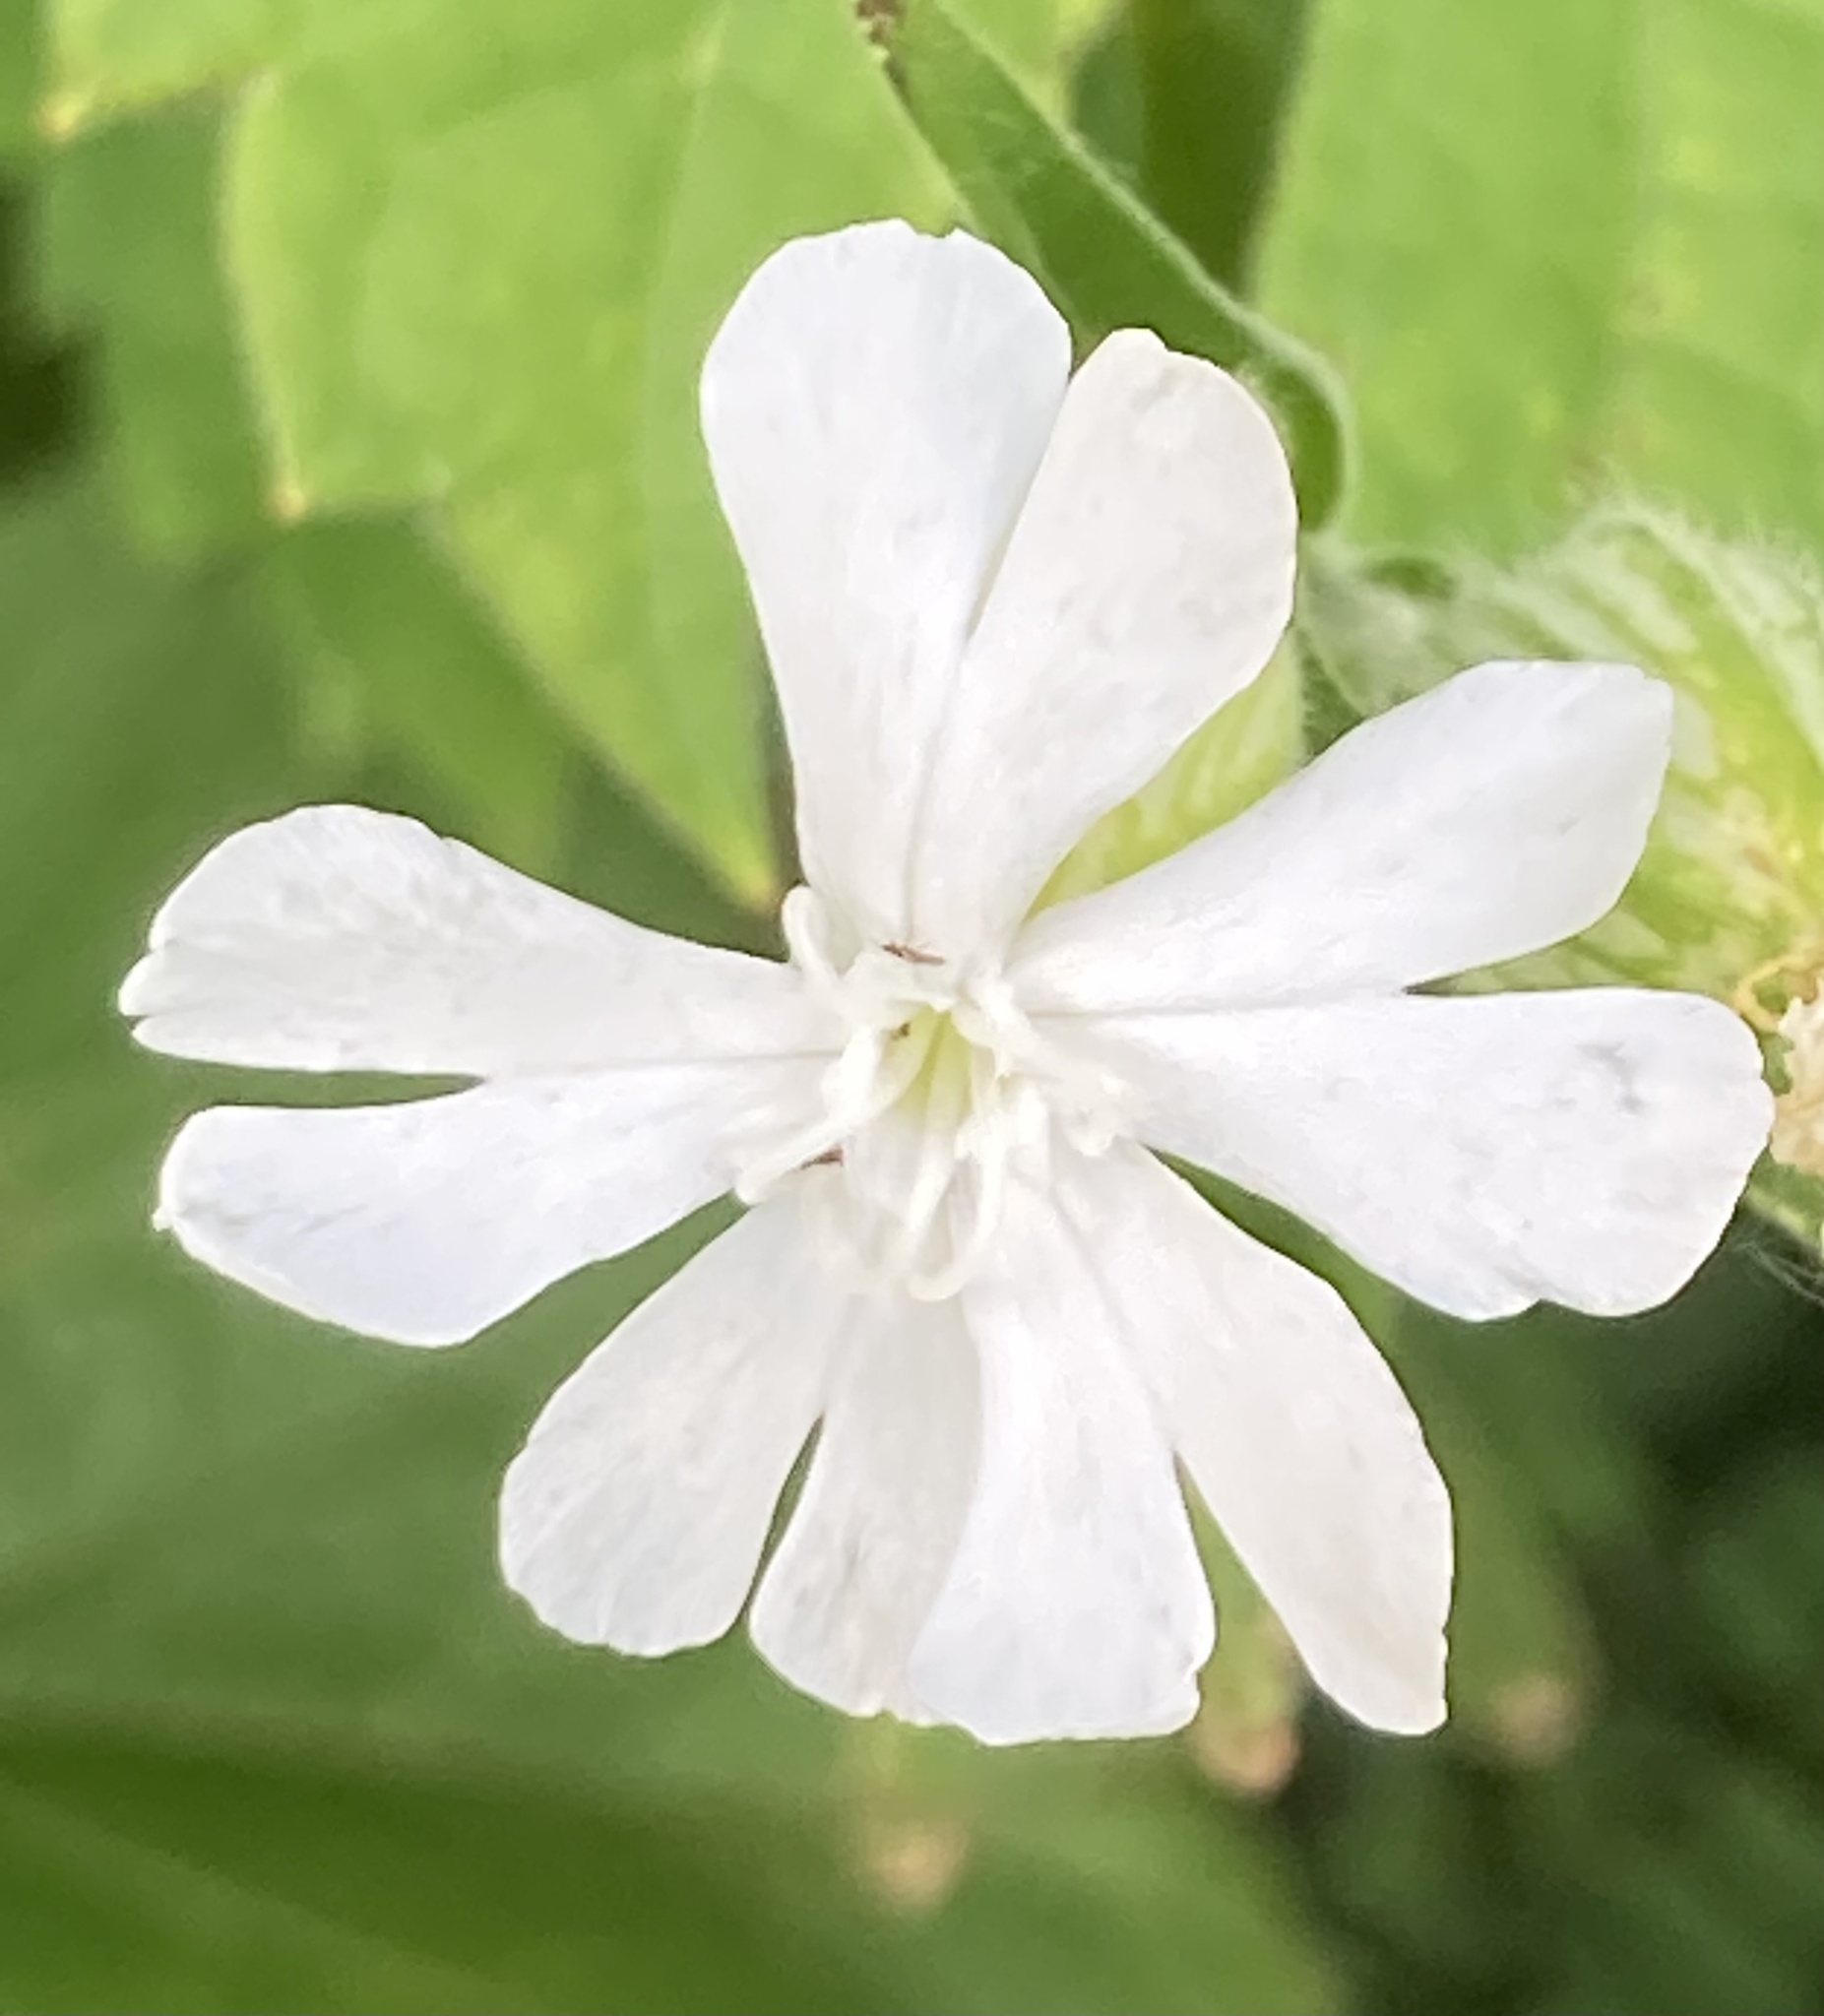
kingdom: Plantae
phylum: Tracheophyta
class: Magnoliopsida
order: Caryophyllales
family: Caryophyllaceae
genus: Silene
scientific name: Silene latifolia
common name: White campion
